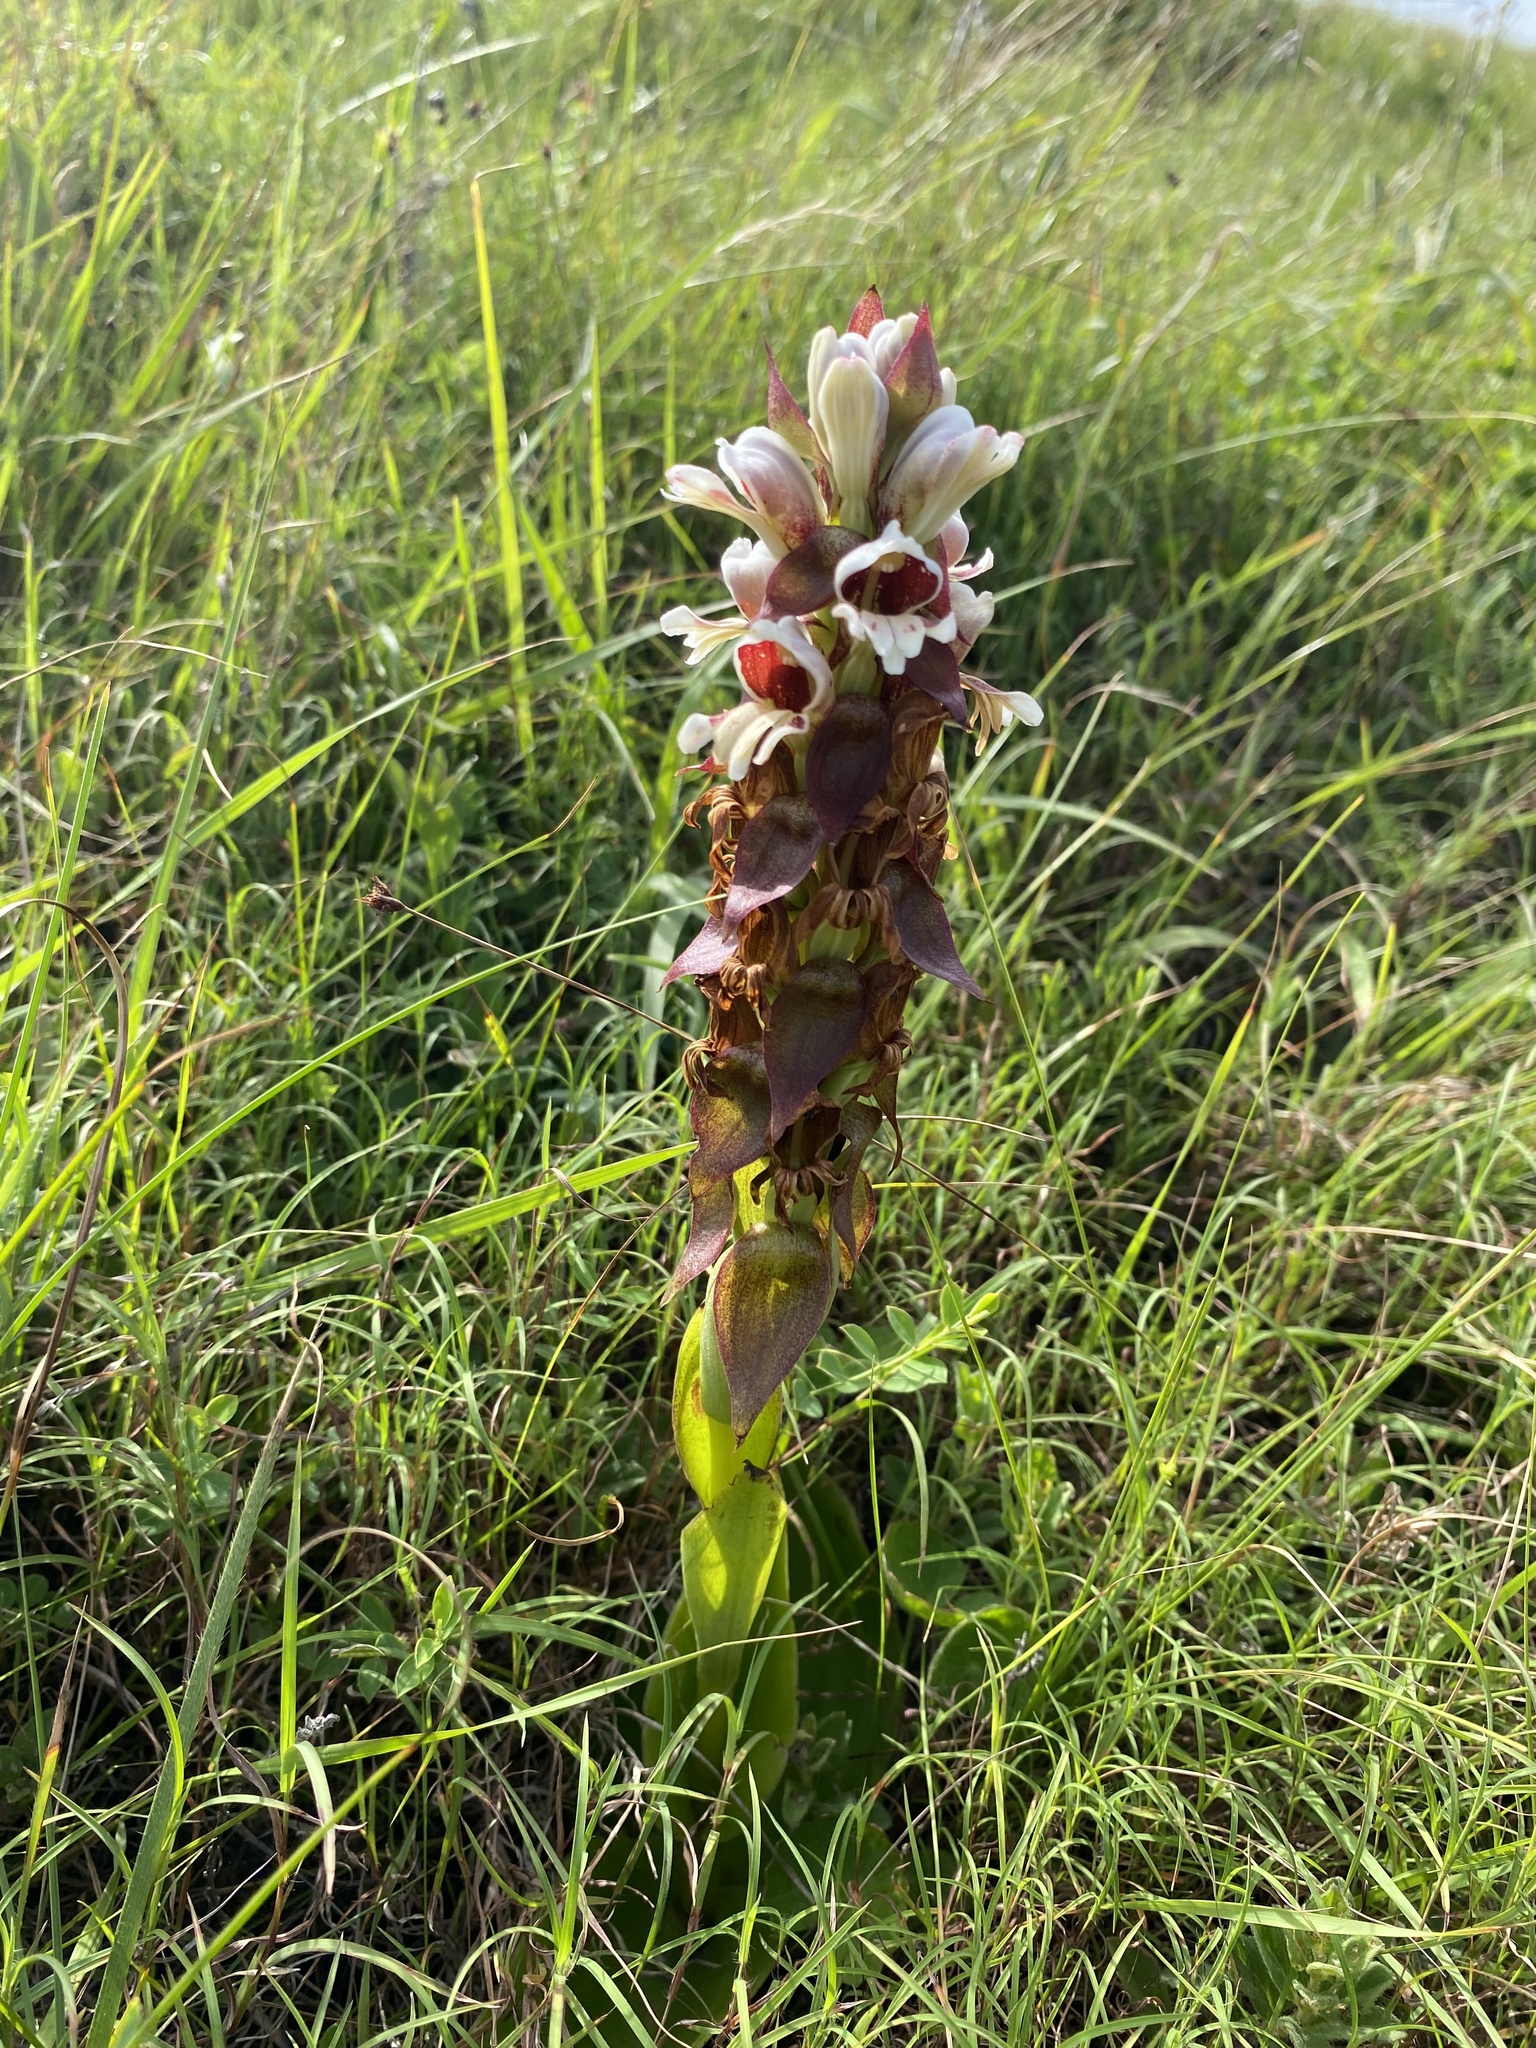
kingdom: Plantae
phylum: Tracheophyta
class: Liliopsida
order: Asparagales
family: Orchidaceae
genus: Satyrium
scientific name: Satyrium sphaerocarpum
